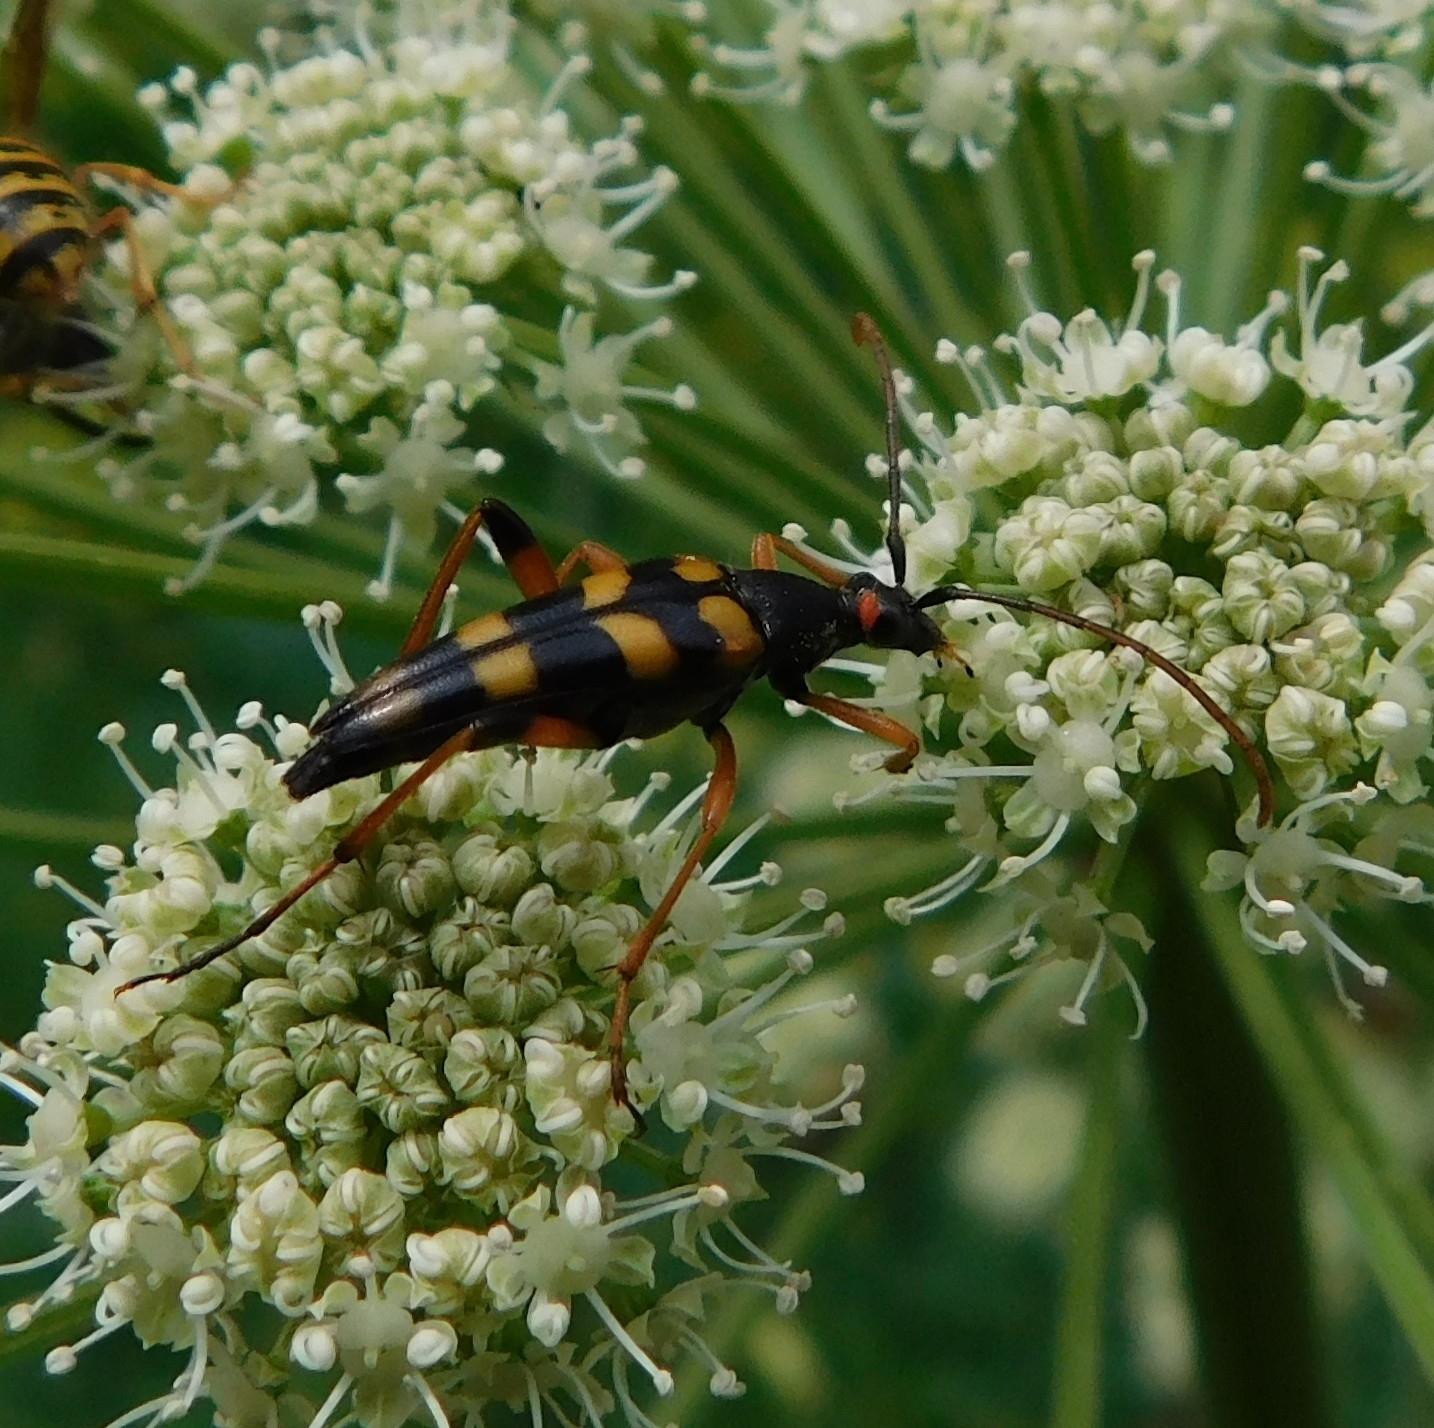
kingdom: Animalia
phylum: Arthropoda
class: Insecta
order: Coleoptera
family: Cerambycidae
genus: Strangalia
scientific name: Strangalia attenuata
